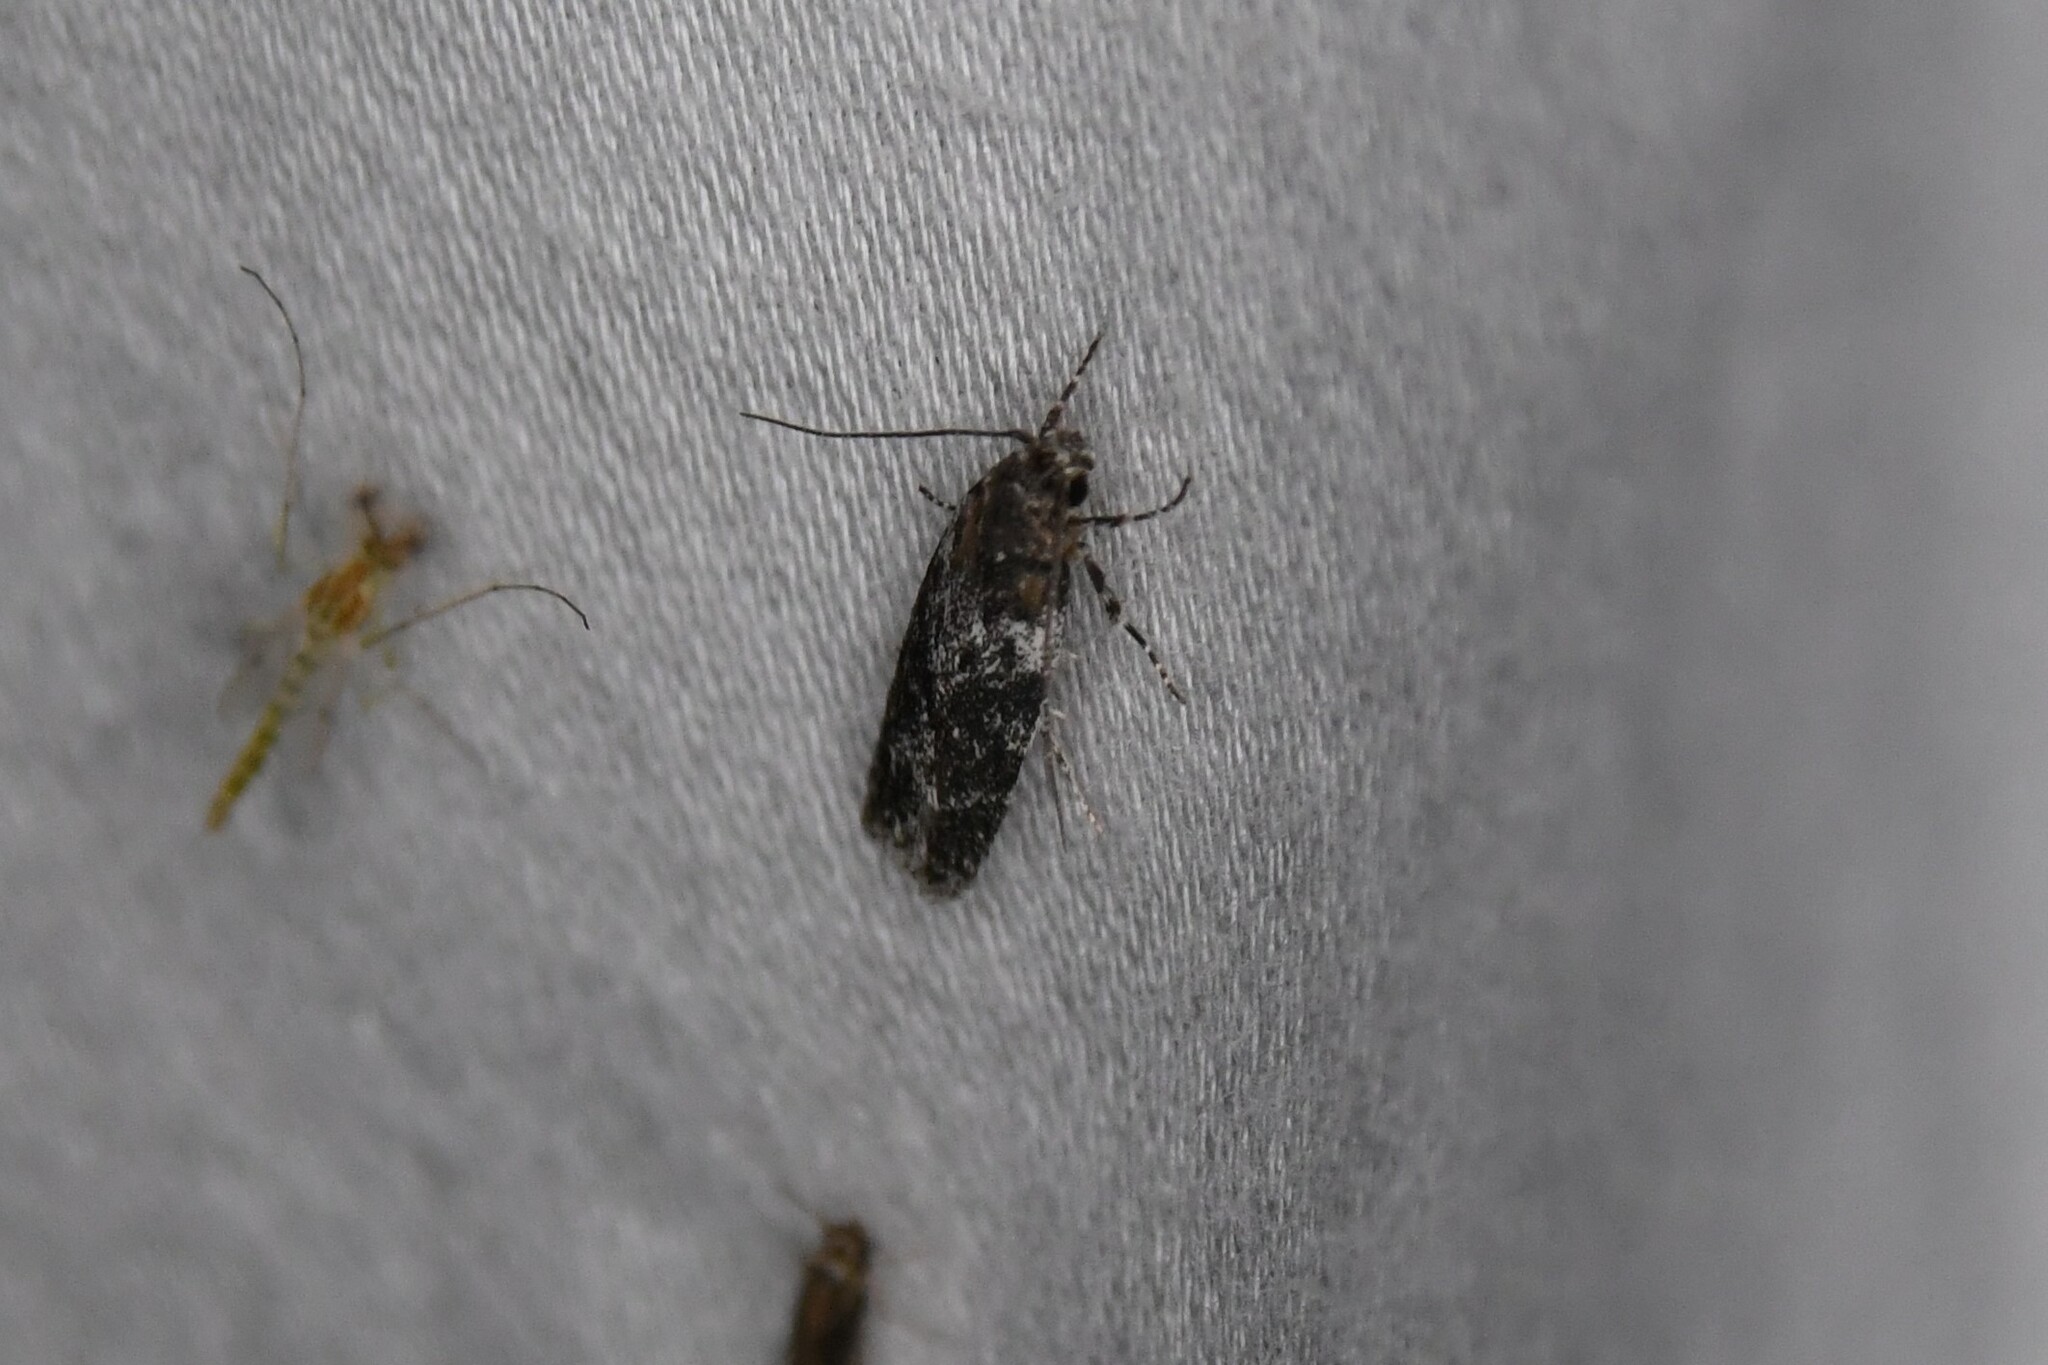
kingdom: Animalia
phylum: Arthropoda
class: Insecta
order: Lepidoptera
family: Gelechiidae
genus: Gelechia
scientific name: Gelechia lynceella
